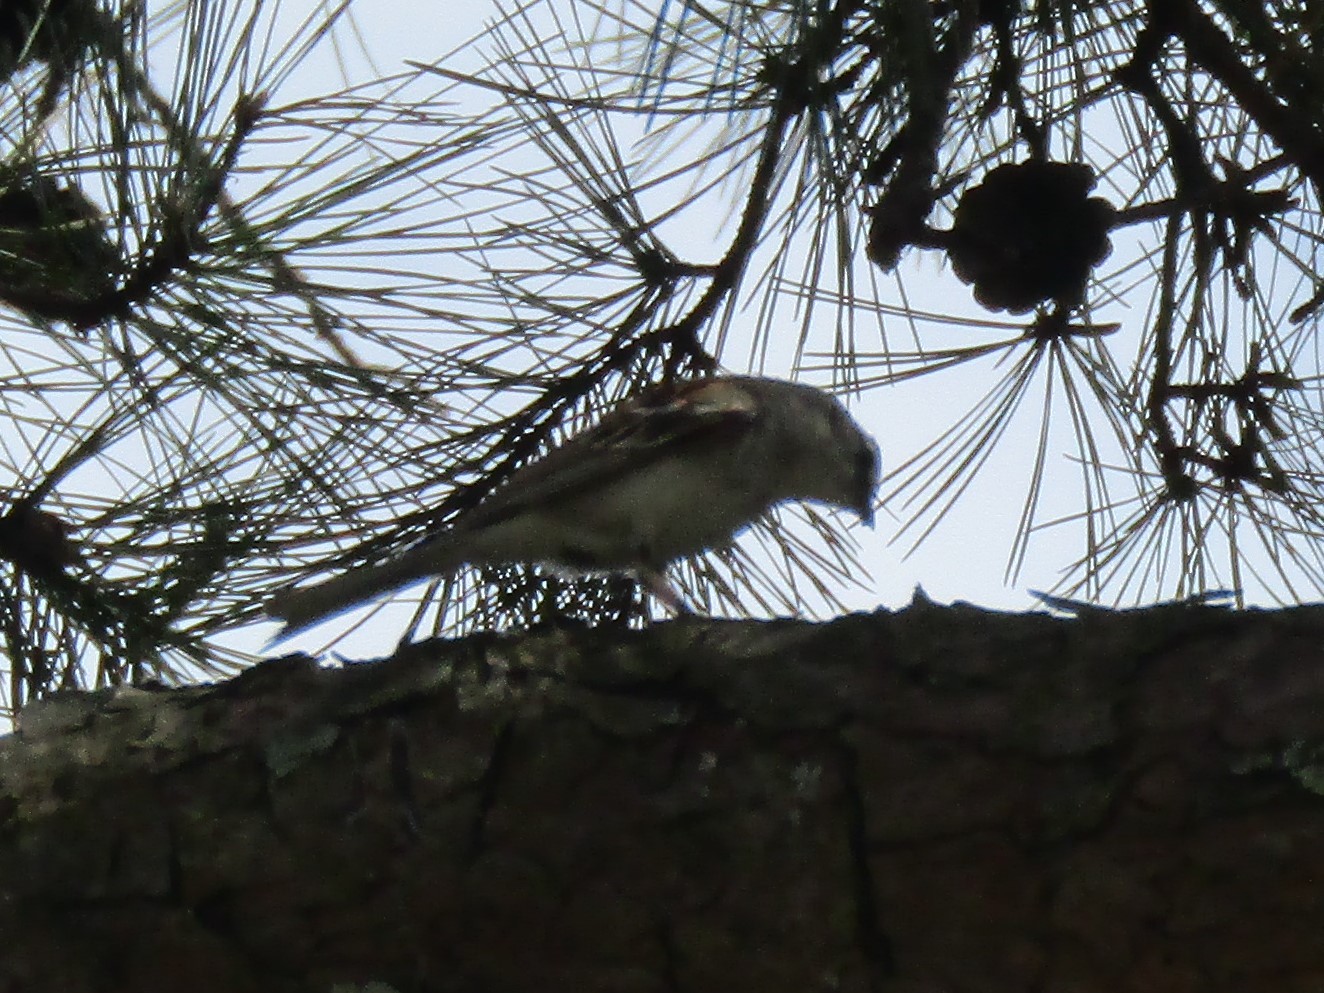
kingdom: Animalia
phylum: Chordata
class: Aves
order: Passeriformes
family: Passerellidae
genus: Spizella
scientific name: Spizella passerina
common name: Chipping sparrow
